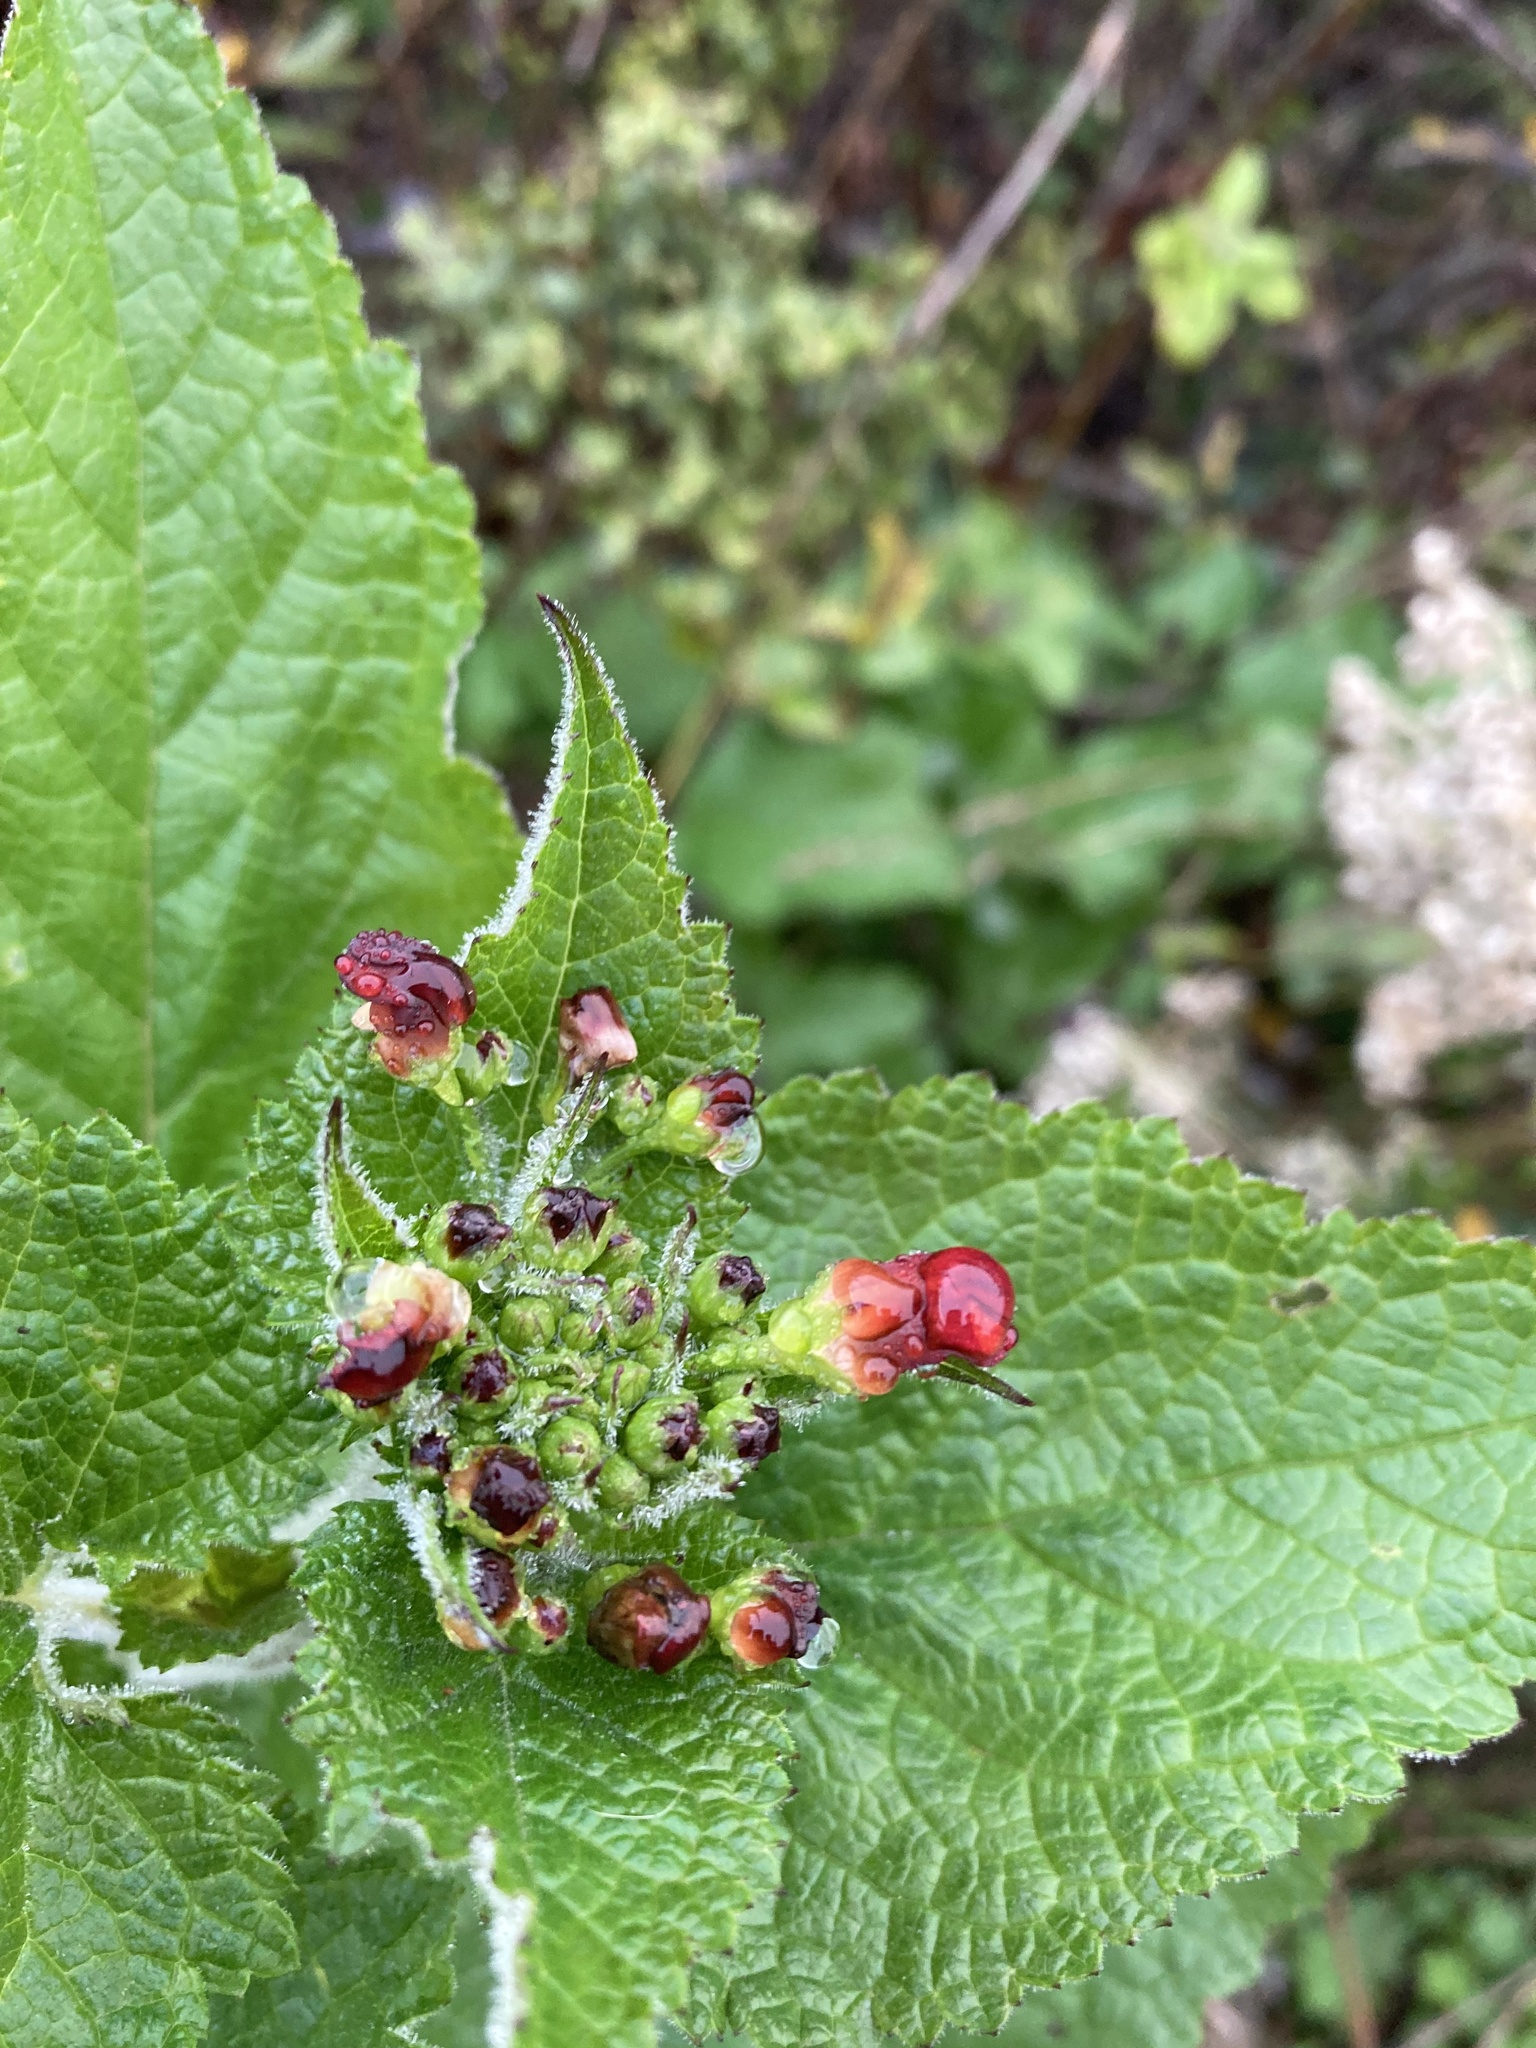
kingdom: Plantae
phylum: Tracheophyta
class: Magnoliopsida
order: Lamiales
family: Scrophulariaceae
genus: Scrophularia
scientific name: Scrophularia californica
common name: California figwort
